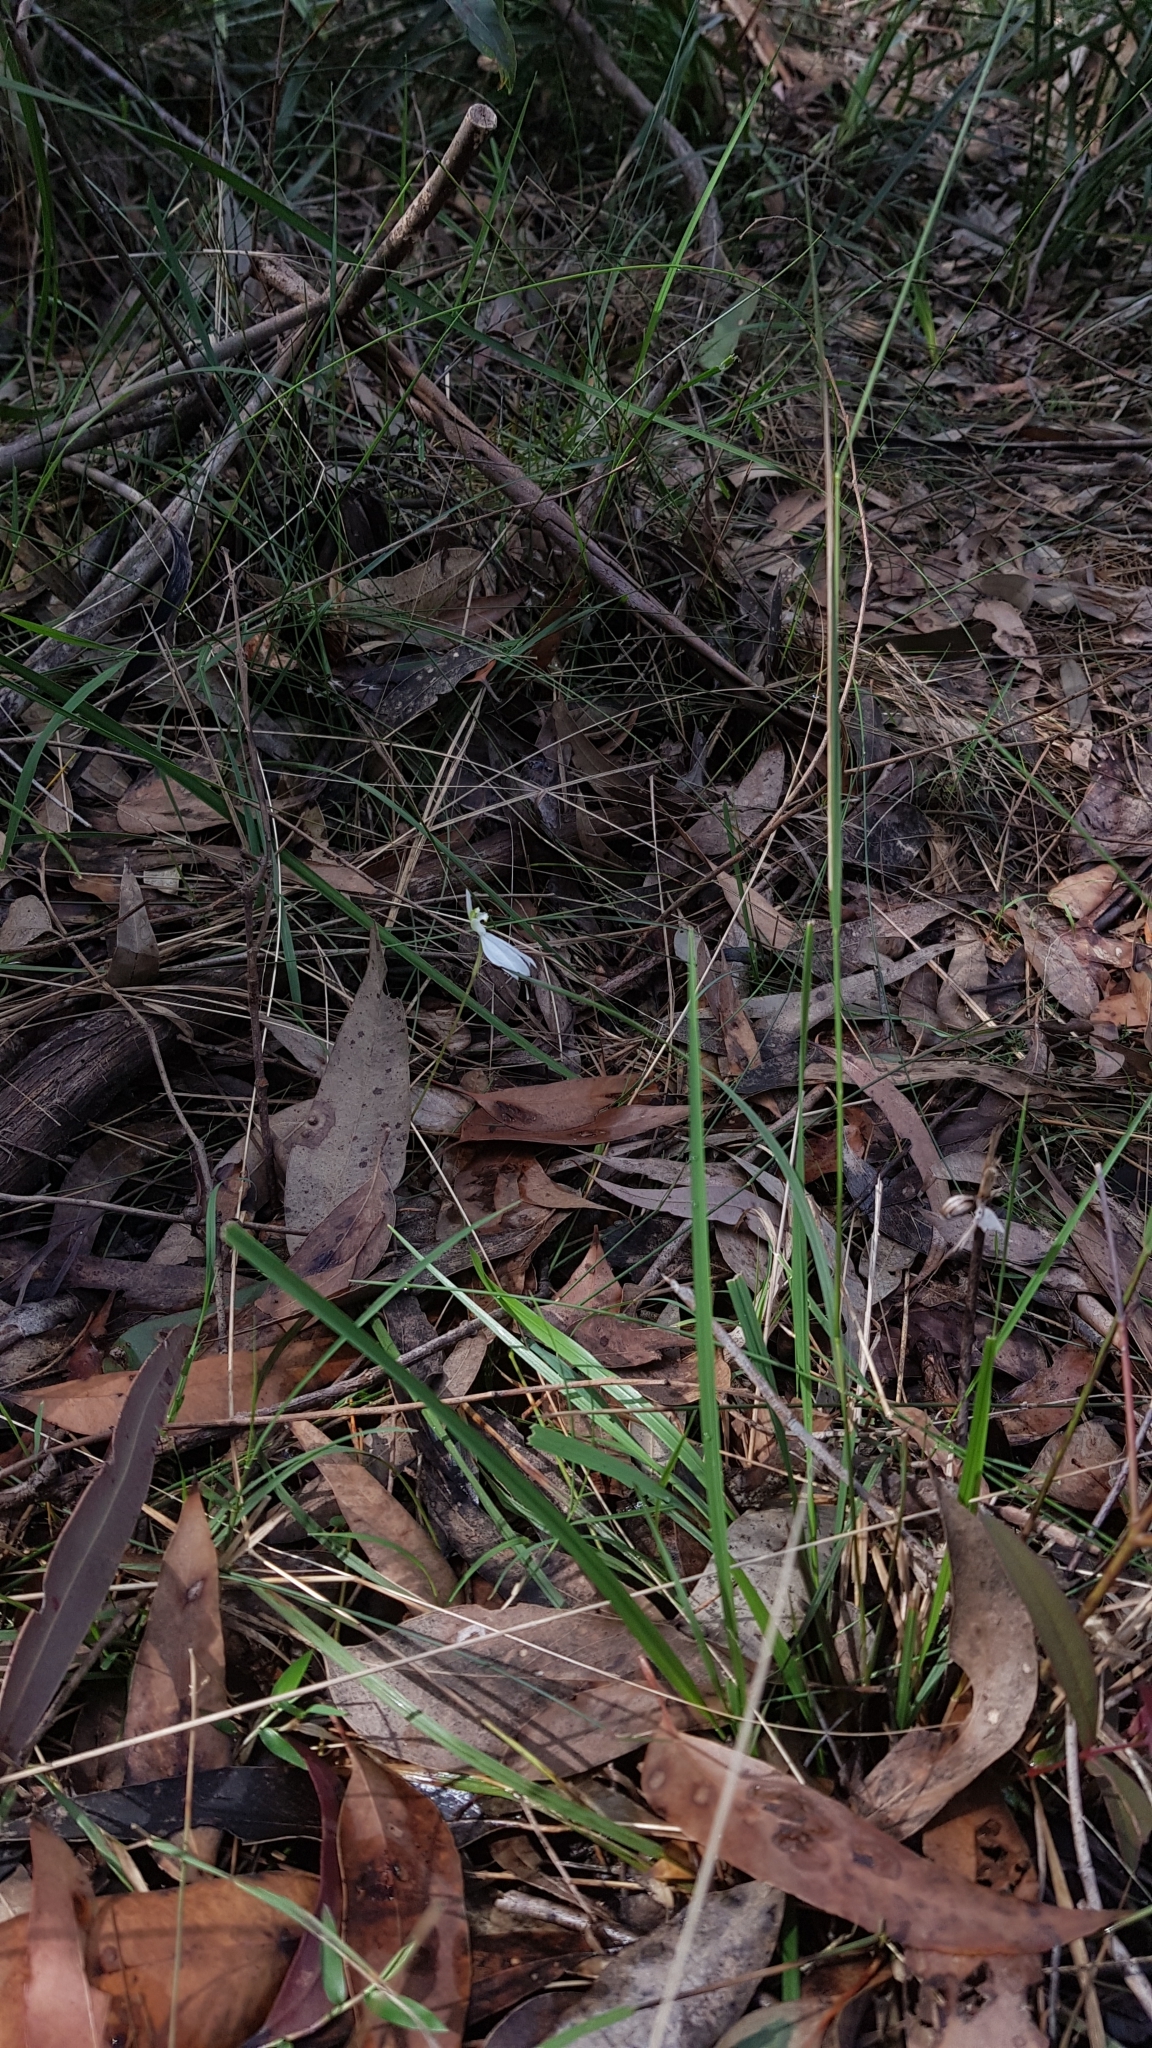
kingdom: Plantae
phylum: Tracheophyta
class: Liliopsida
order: Asparagales
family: Orchidaceae
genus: Caladenia
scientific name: Caladenia
